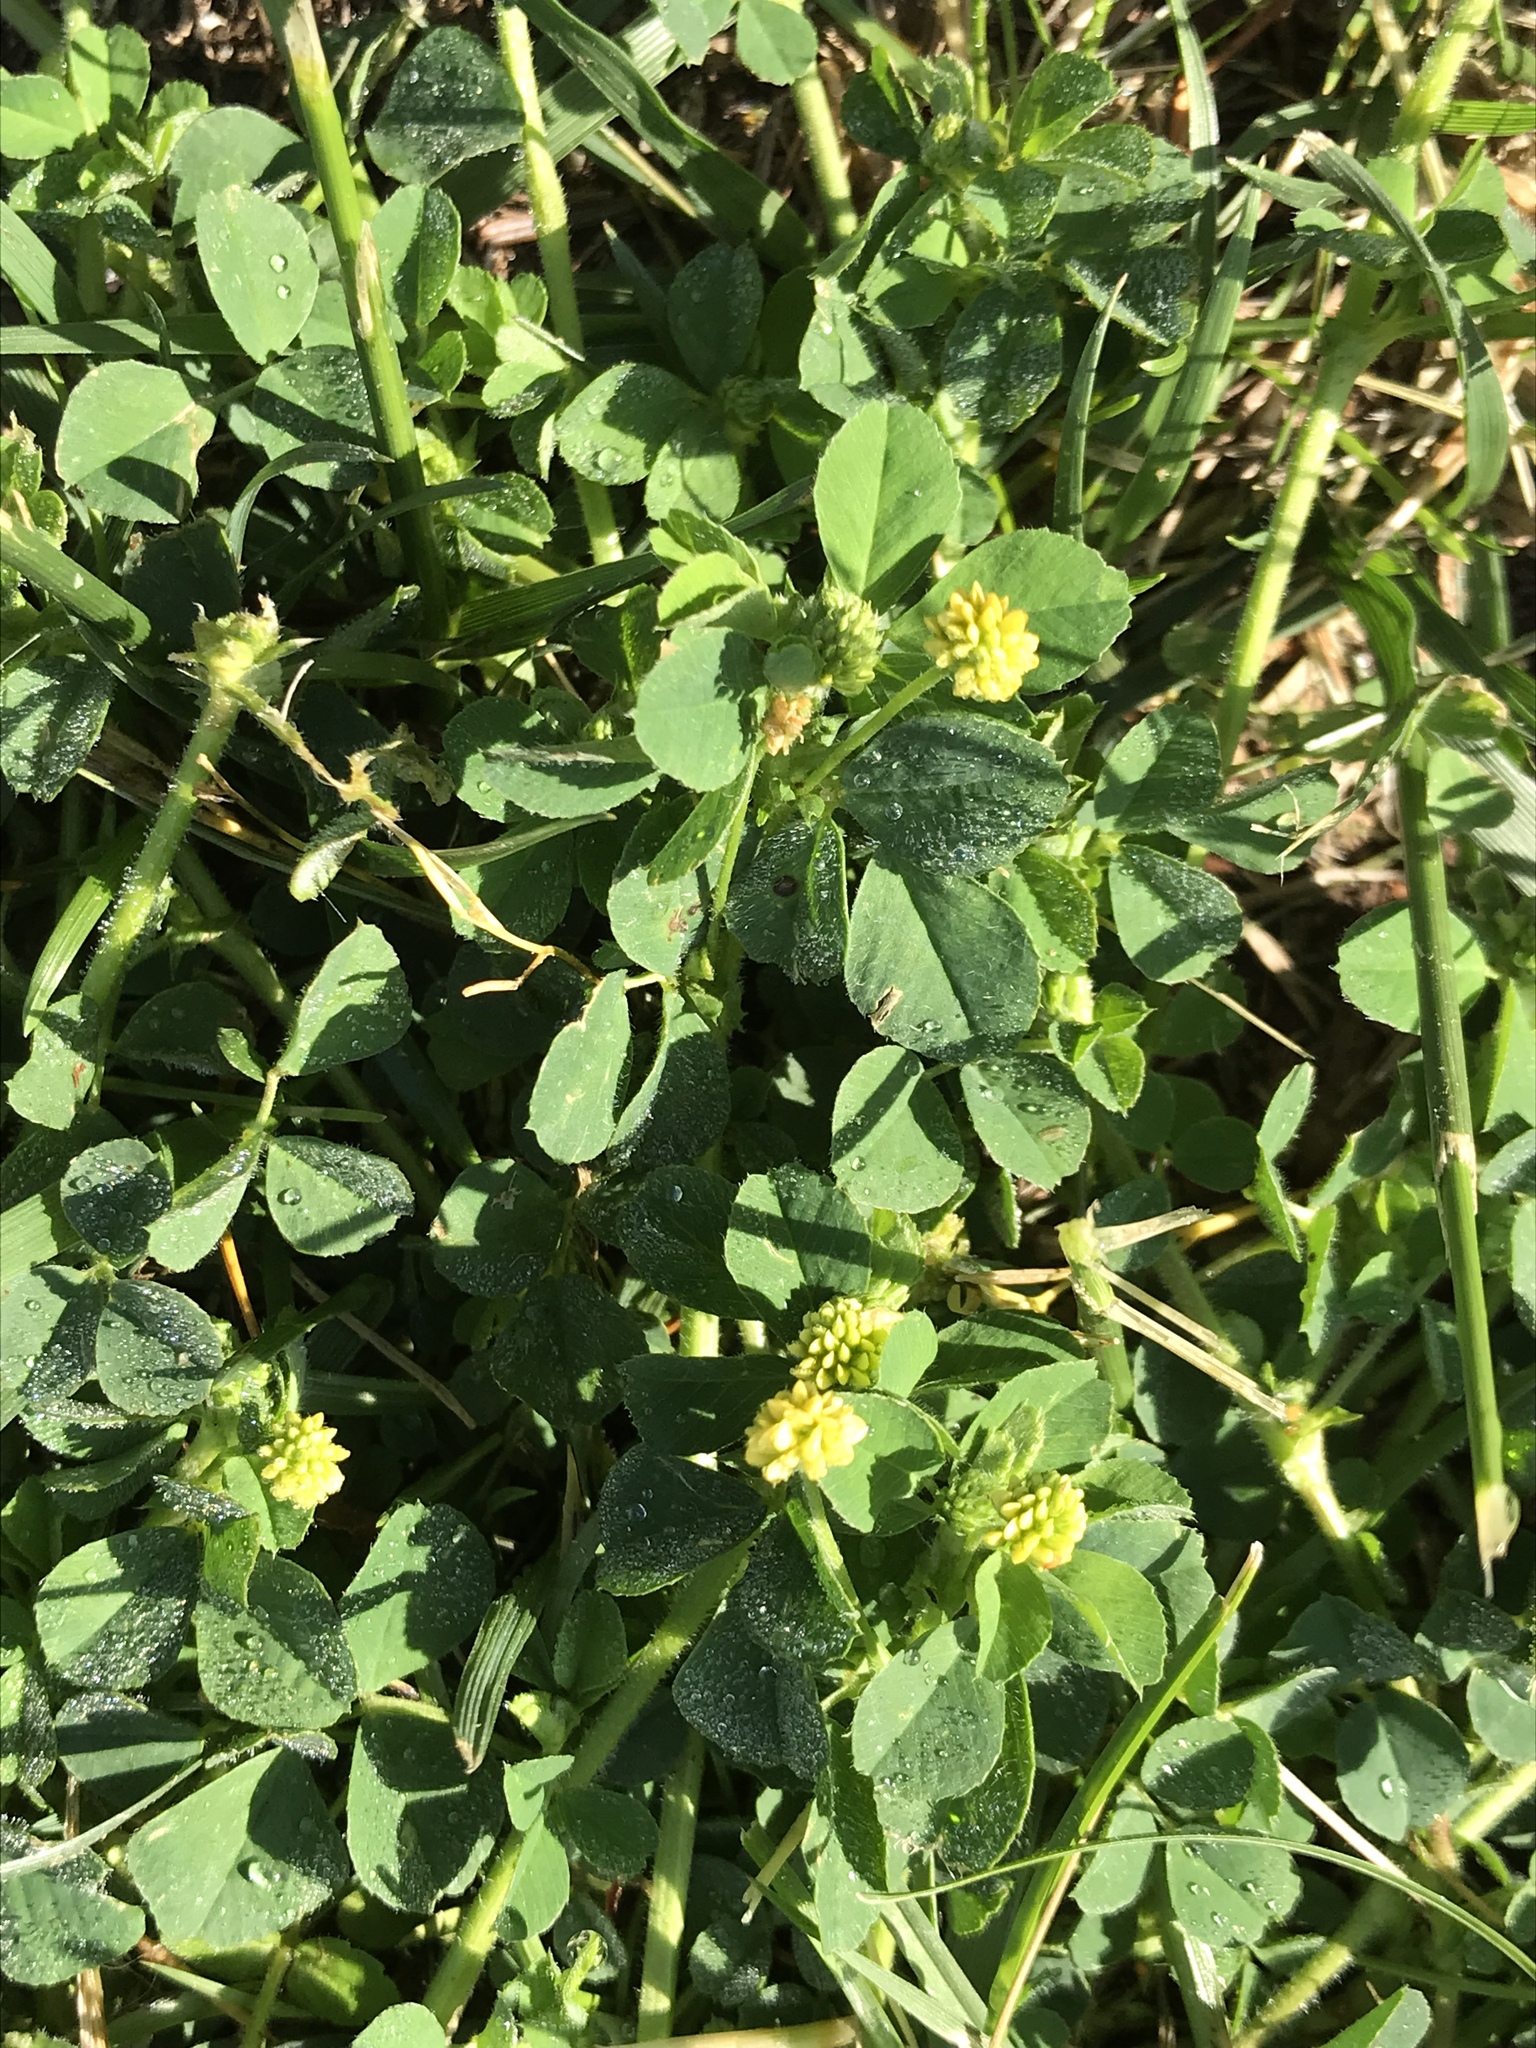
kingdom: Plantae
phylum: Tracheophyta
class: Magnoliopsida
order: Fabales
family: Fabaceae
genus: Medicago
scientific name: Medicago lupulina
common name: Black medick
